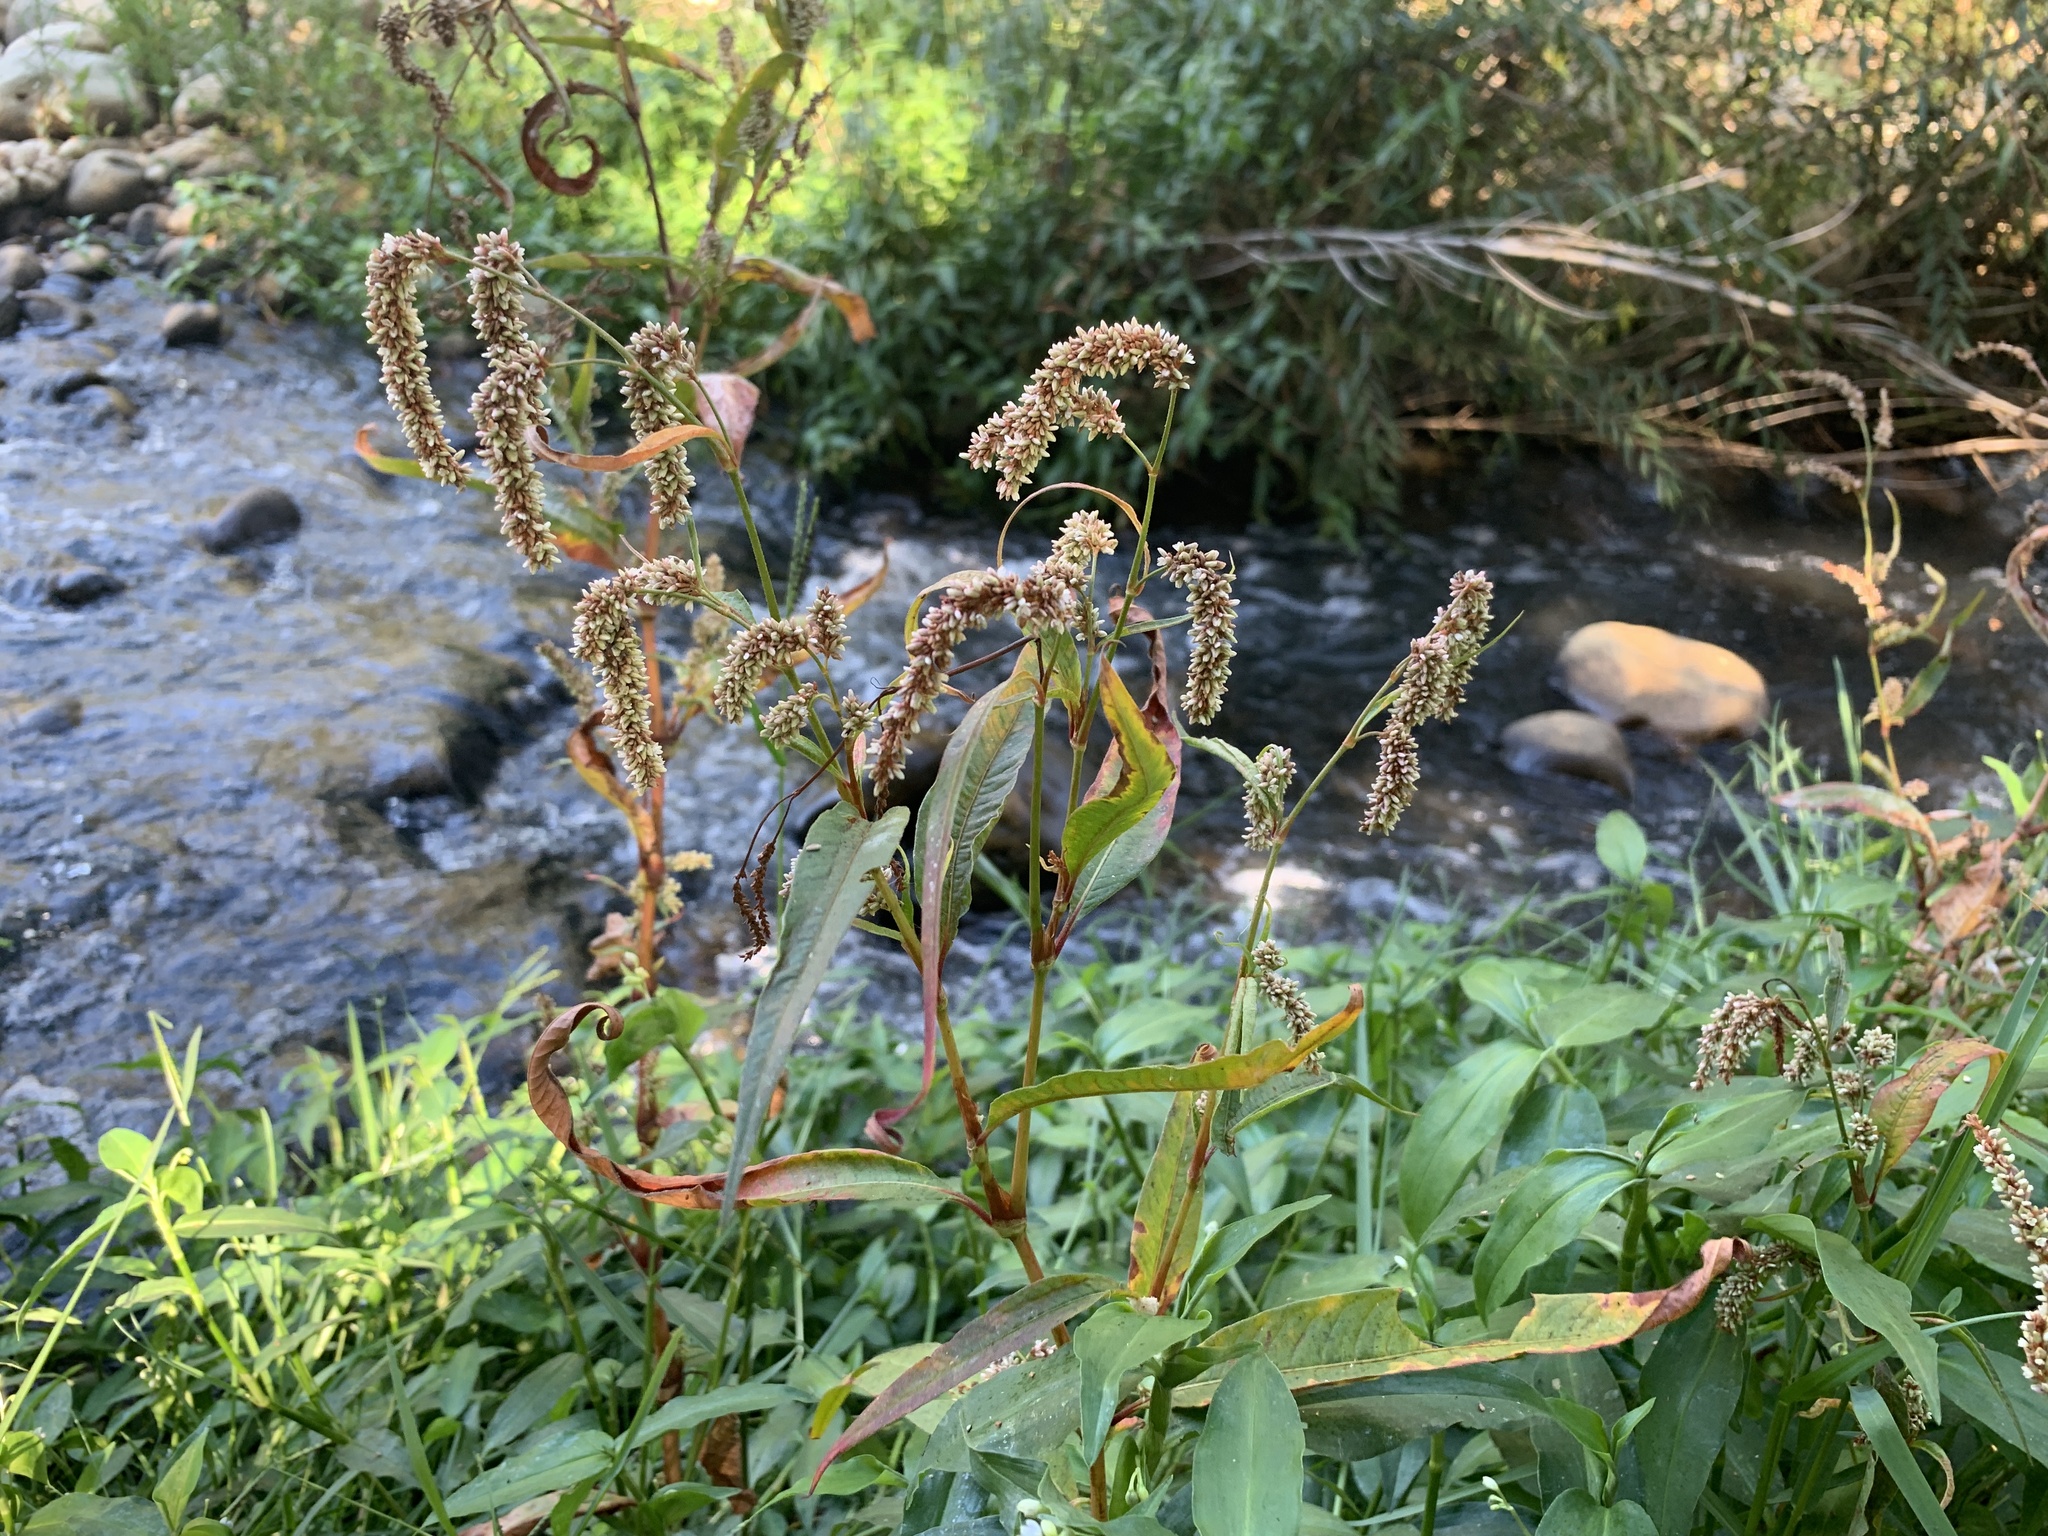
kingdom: Plantae
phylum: Tracheophyta
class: Magnoliopsida
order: Caryophyllales
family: Polygonaceae
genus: Persicaria
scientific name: Persicaria lapathifolia
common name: Curlytop knotweed
